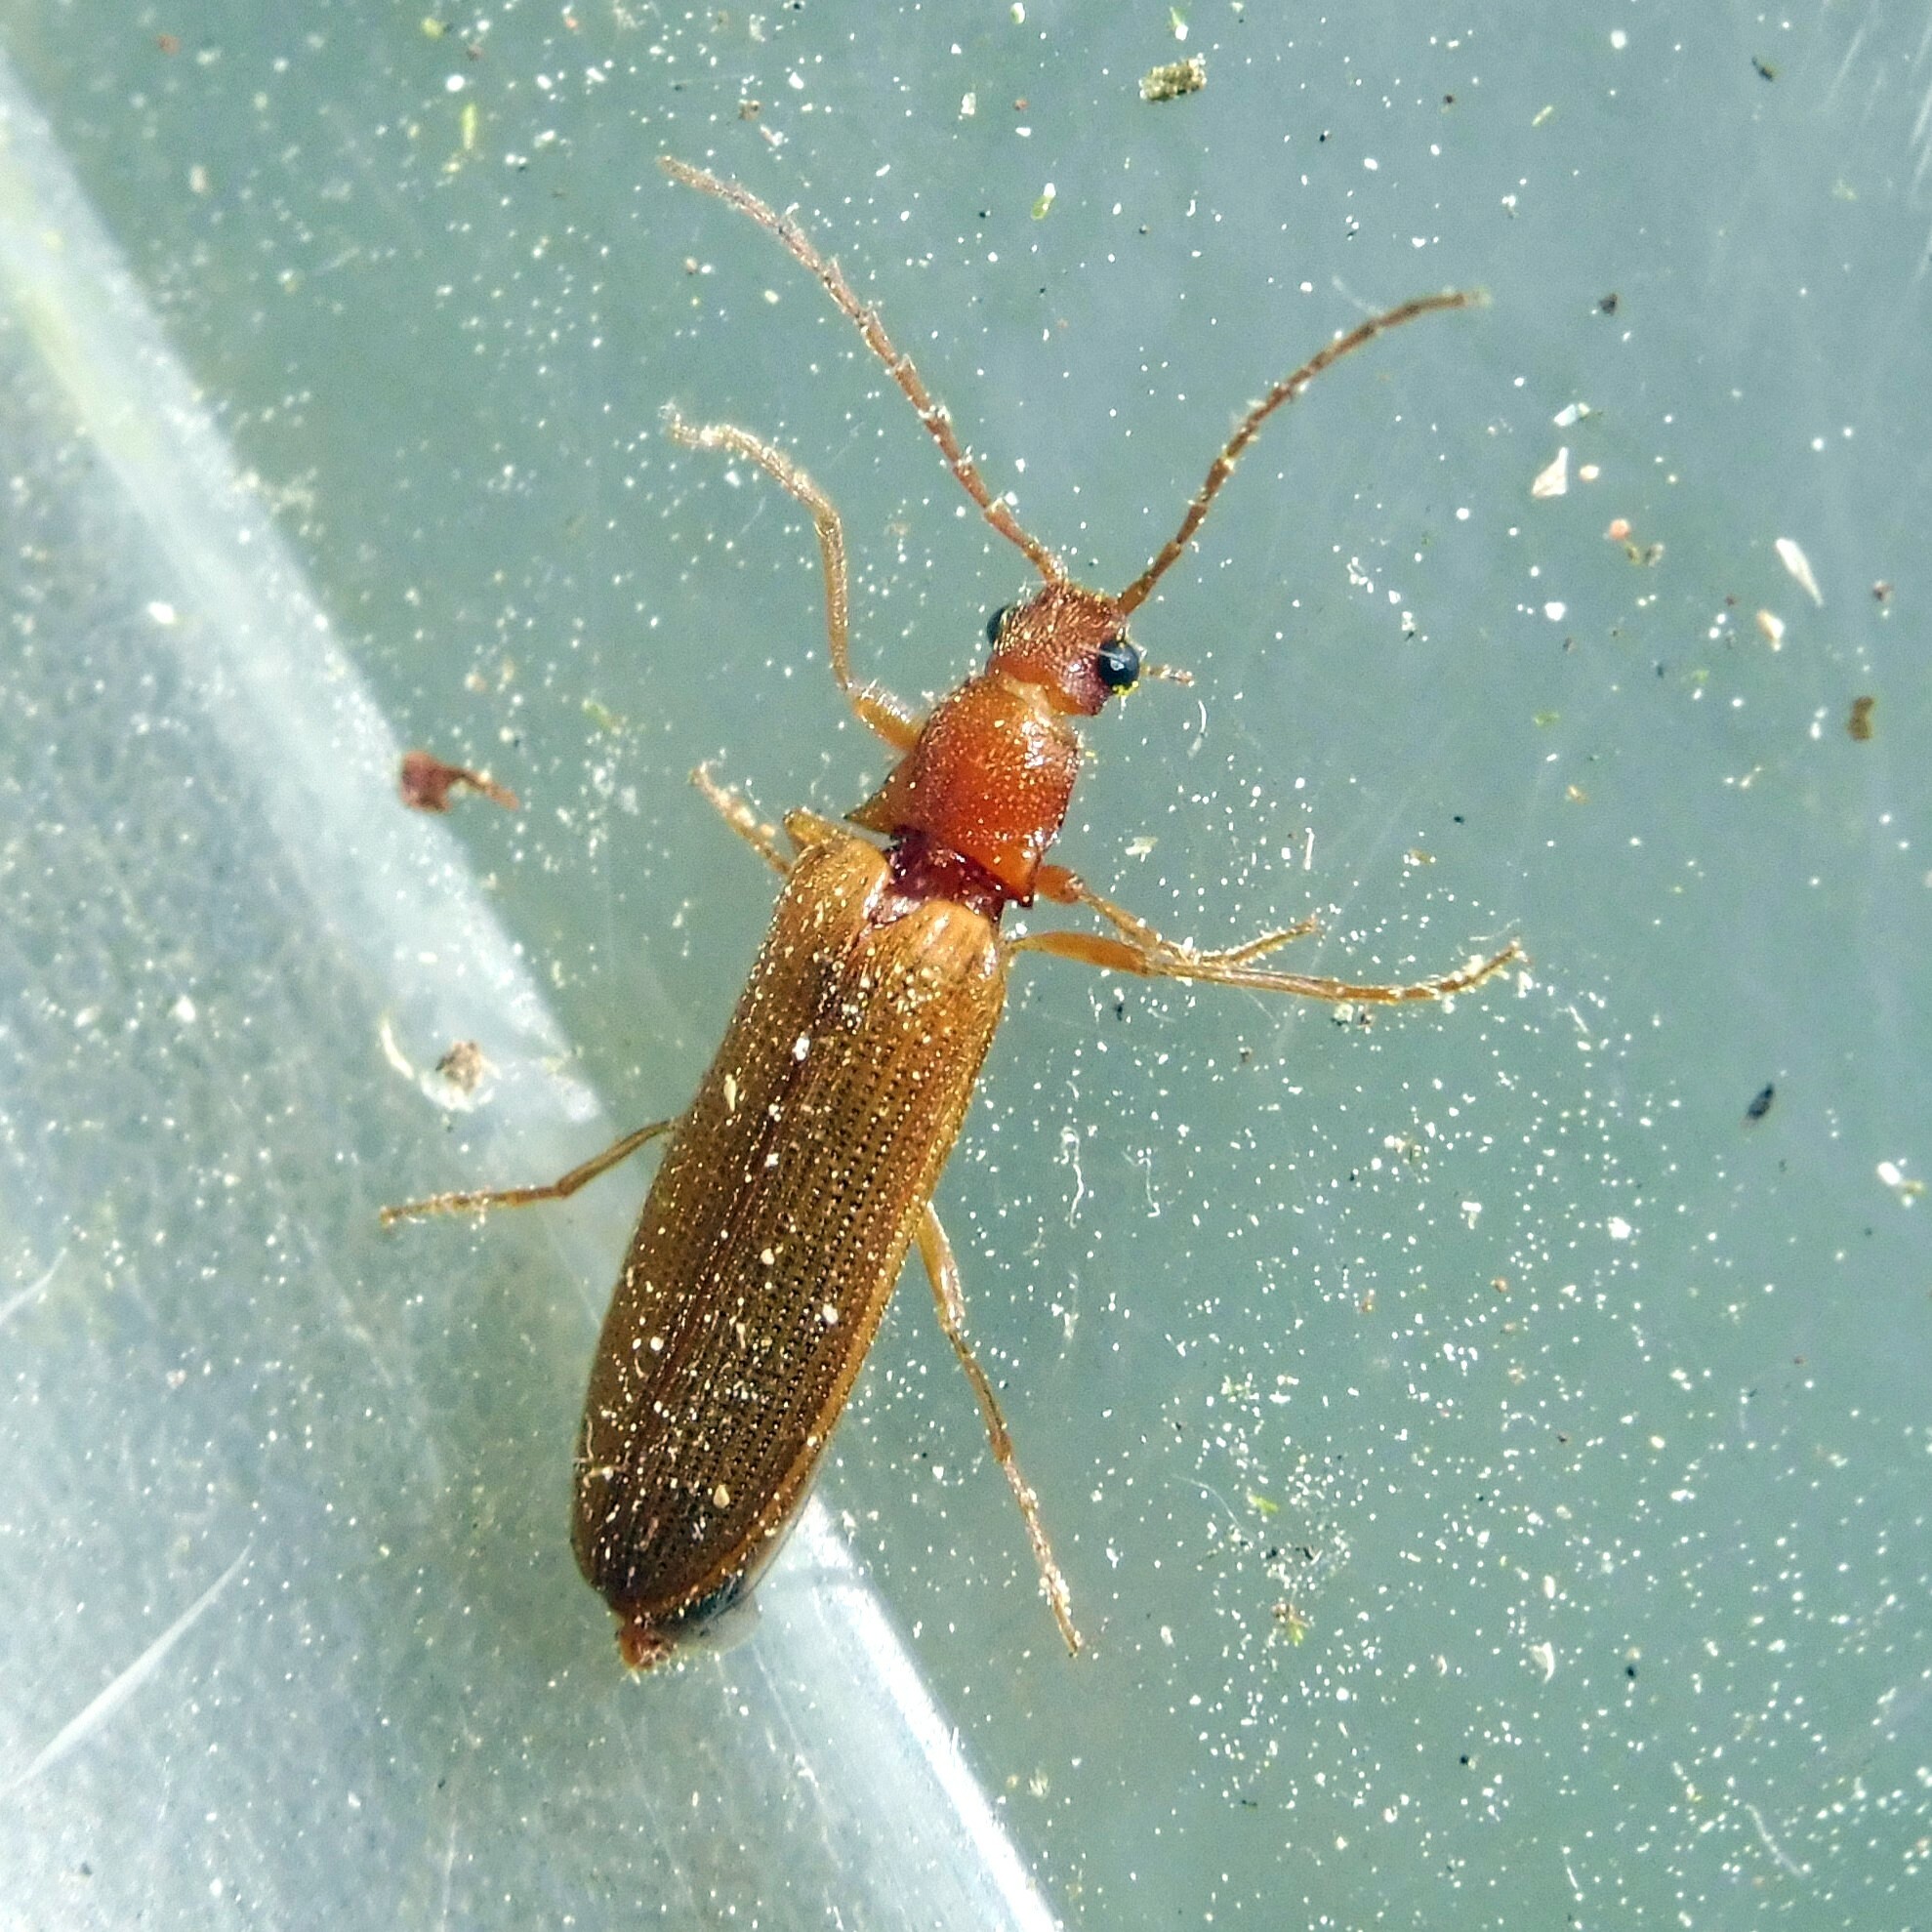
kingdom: Animalia
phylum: Arthropoda
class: Insecta
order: Coleoptera
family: Elateridae
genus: Denticollis
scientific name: Denticollis linearis
